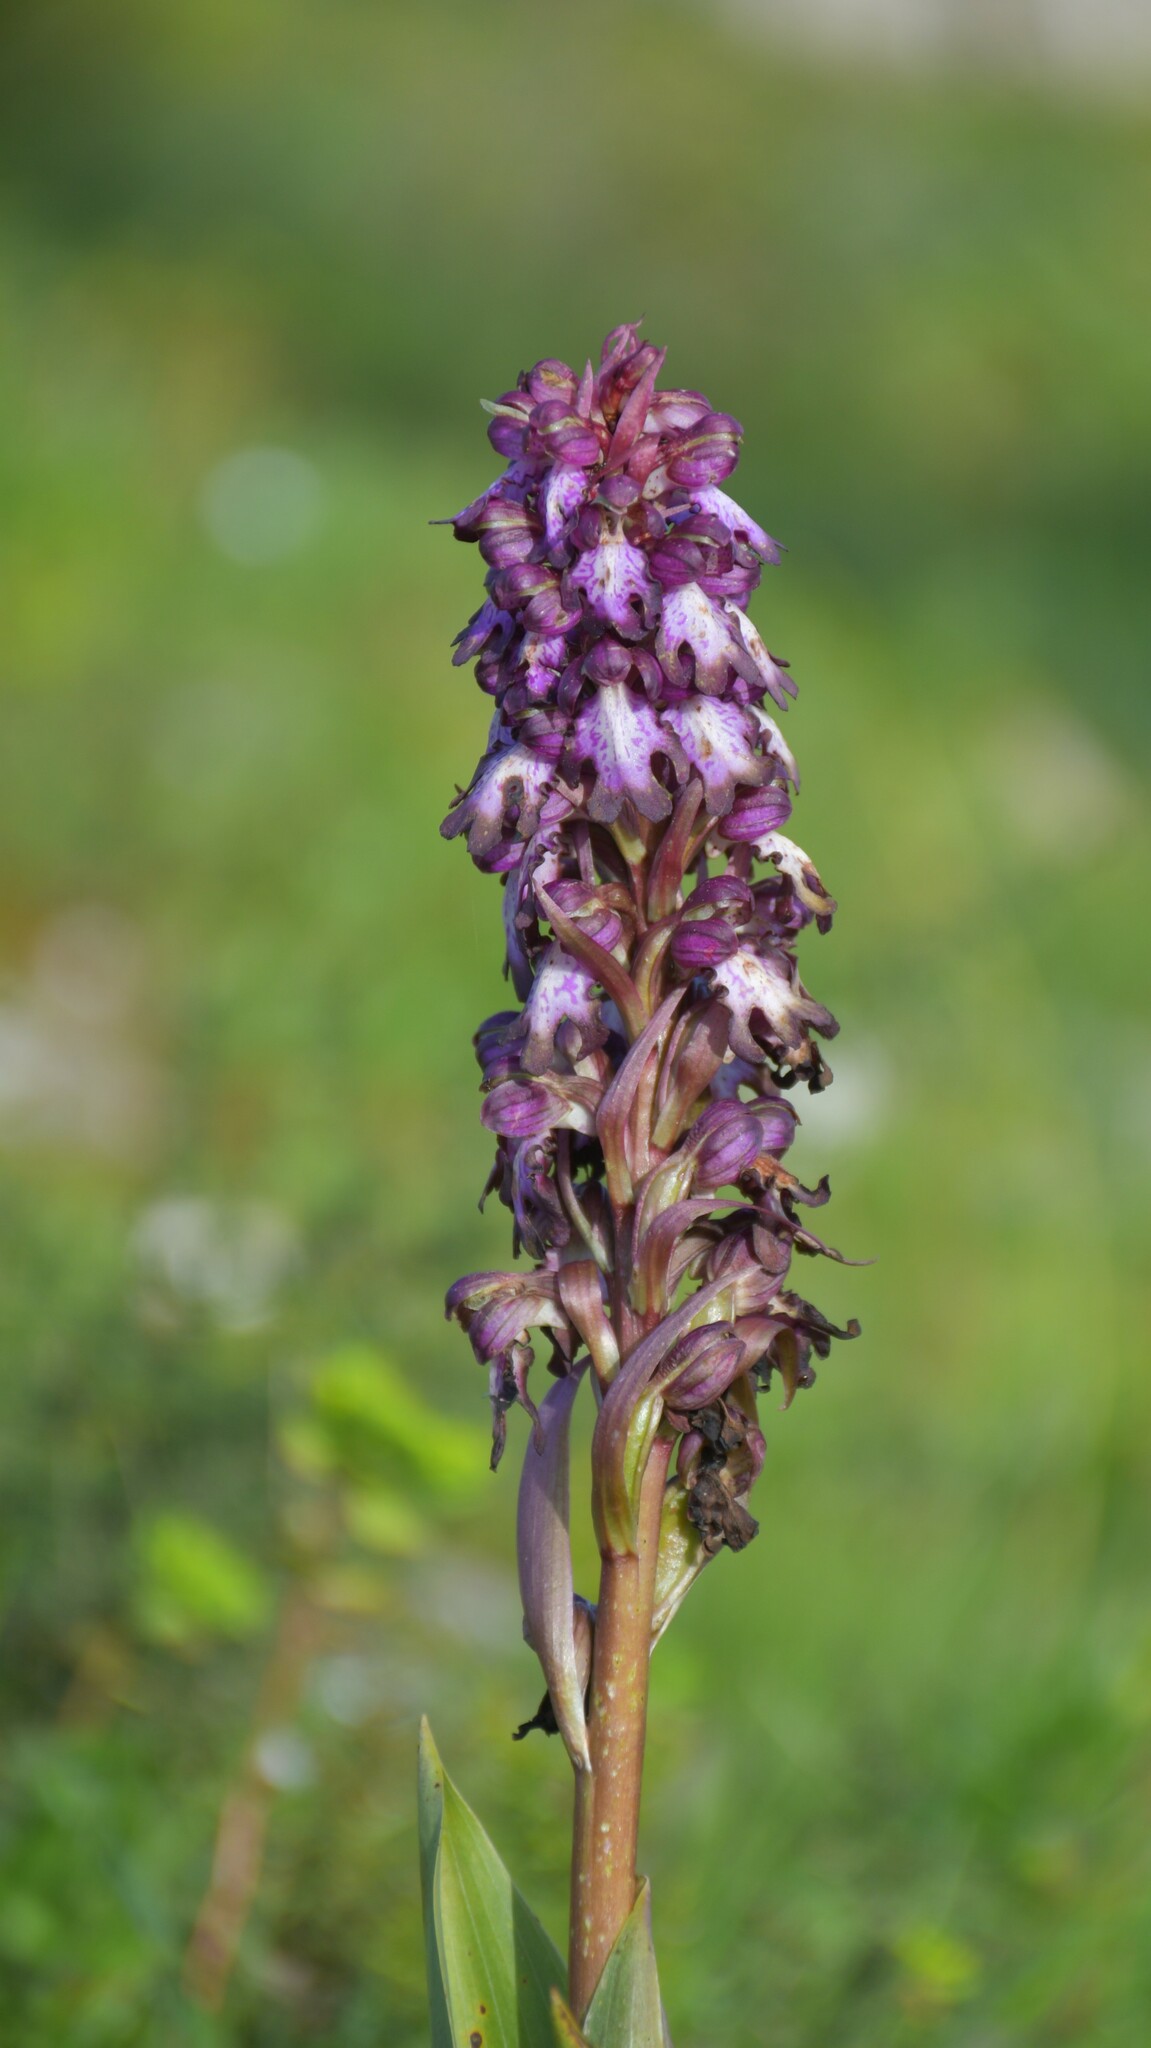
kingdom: Plantae
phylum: Tracheophyta
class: Liliopsida
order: Asparagales
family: Orchidaceae
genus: Himantoglossum
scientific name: Himantoglossum robertianum
